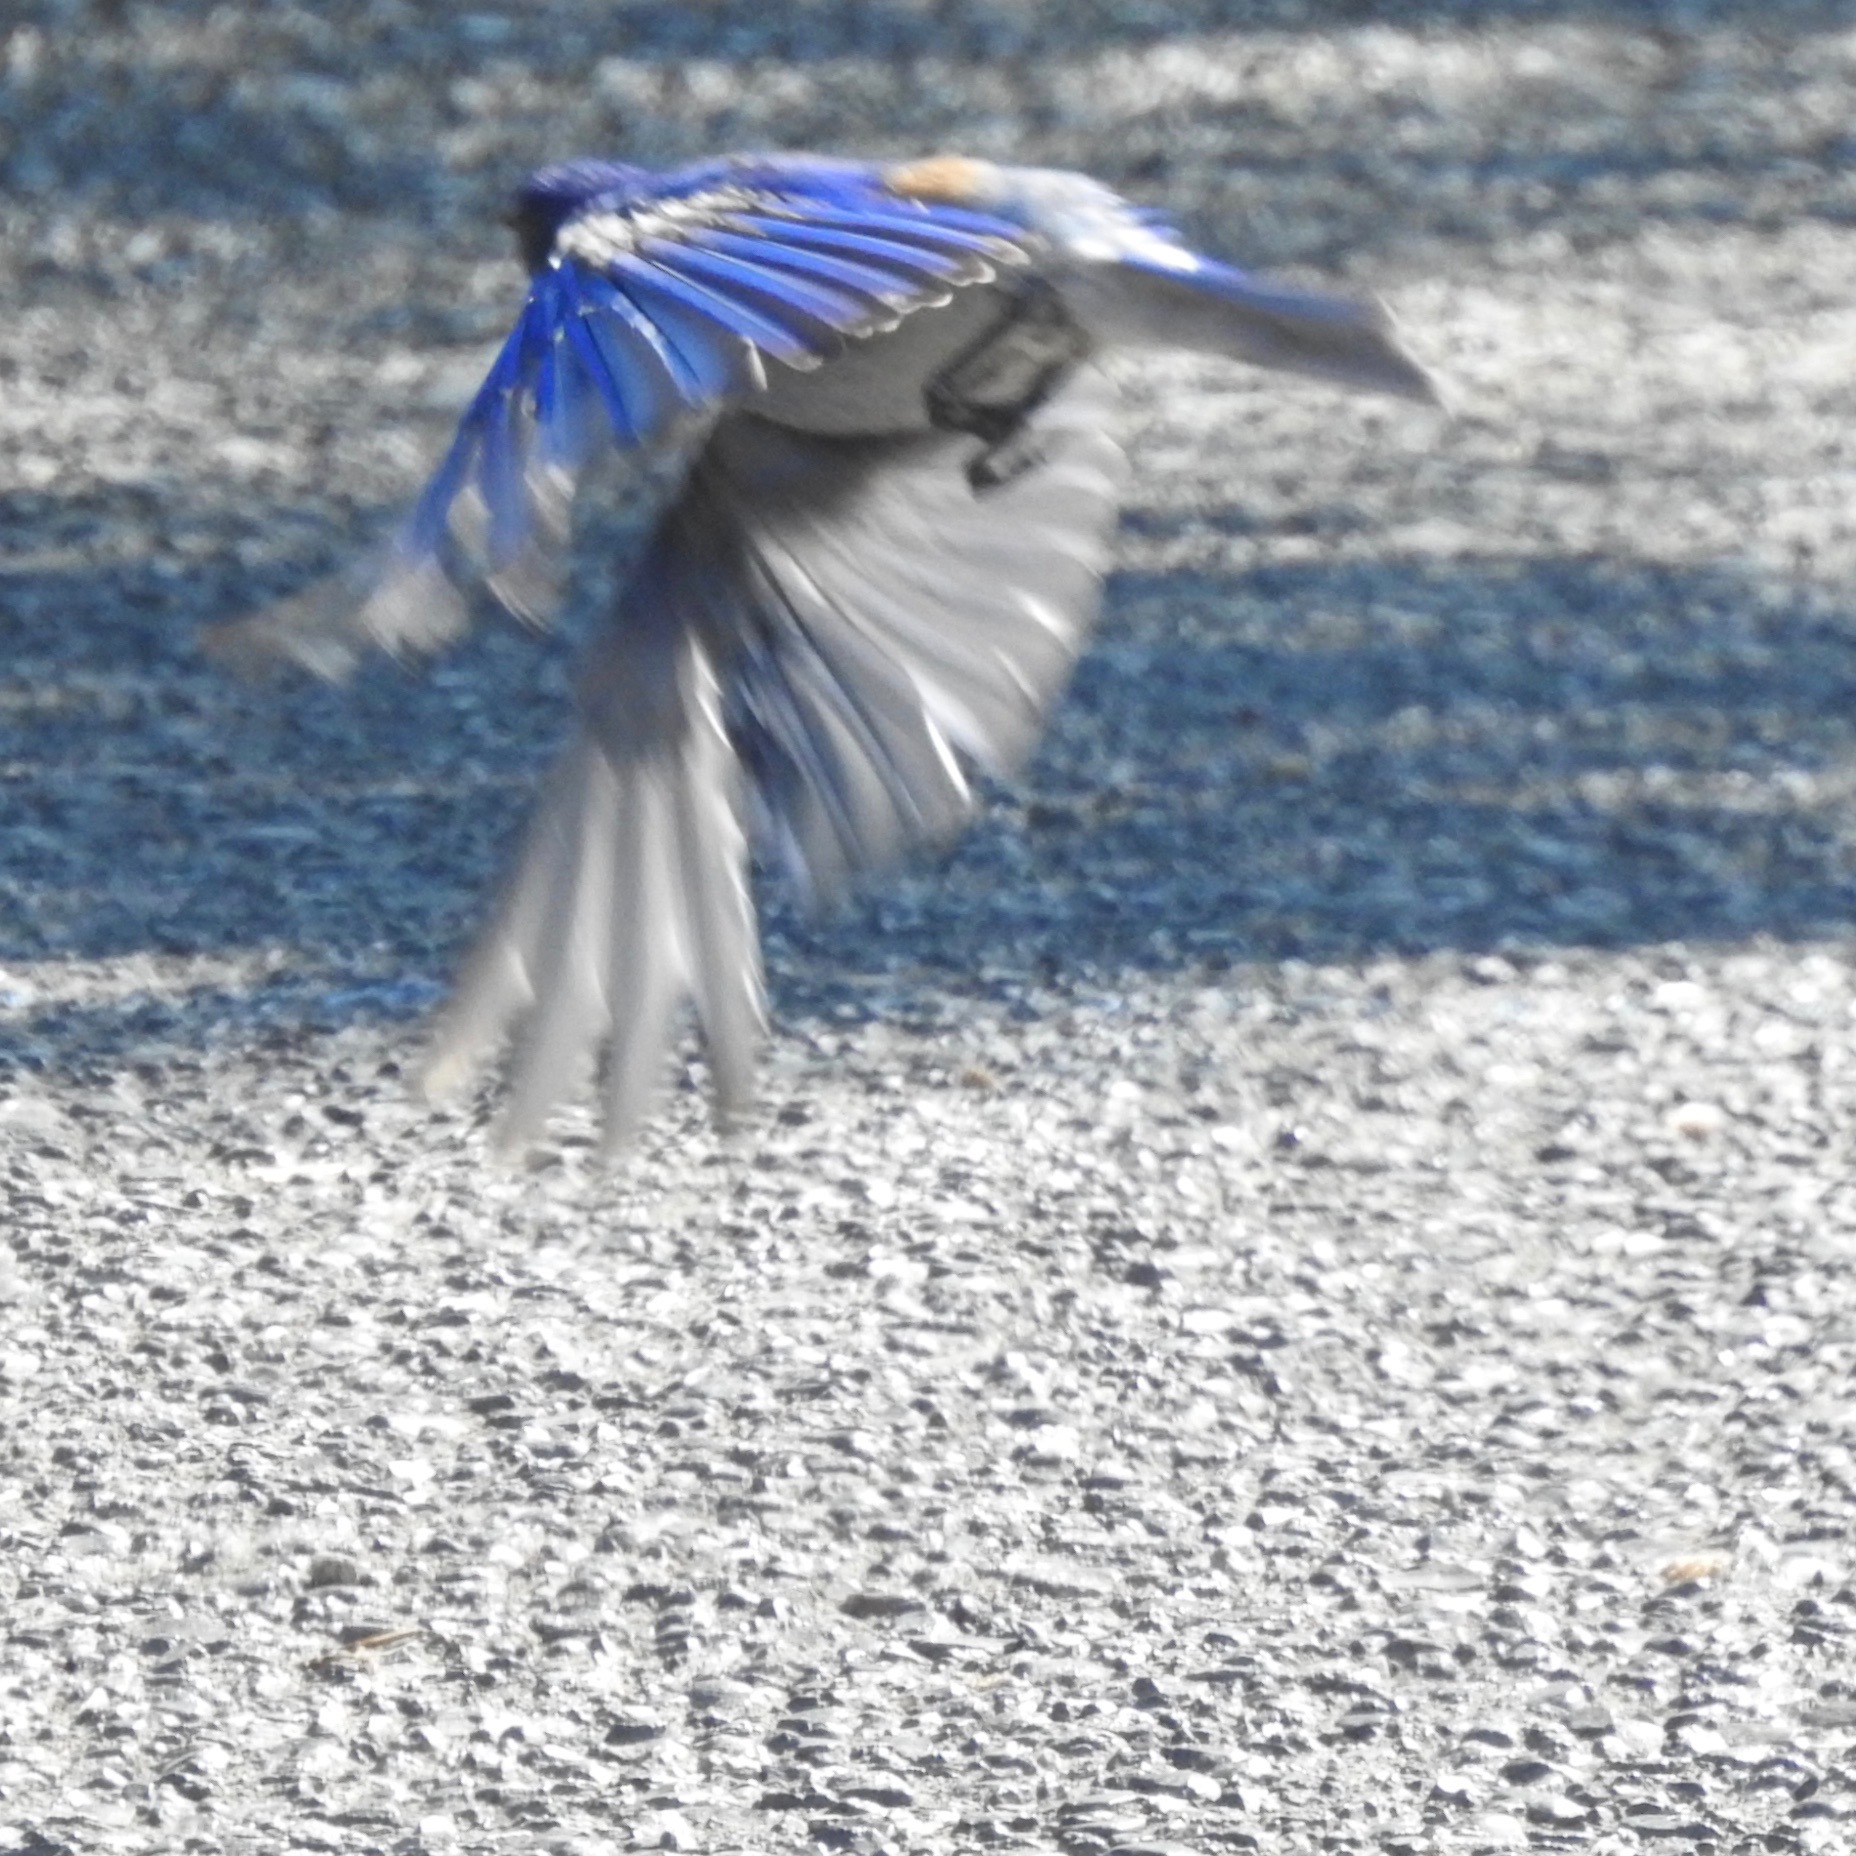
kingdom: Animalia
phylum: Chordata
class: Aves
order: Passeriformes
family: Turdidae
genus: Sialia
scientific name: Sialia mexicana
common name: Western bluebird
